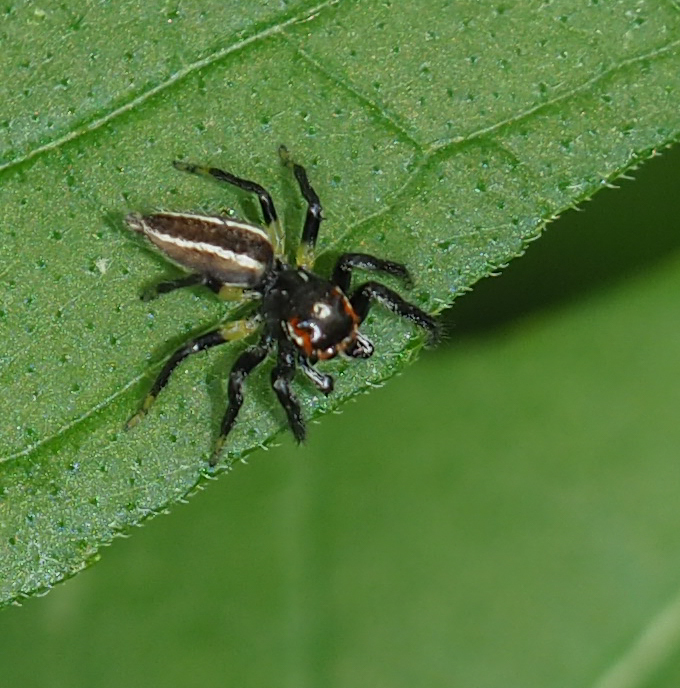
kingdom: Animalia
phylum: Arthropoda
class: Arachnida
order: Araneae
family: Salticidae
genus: Colonus
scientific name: Colonus sylvanus
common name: Jumping spiders
